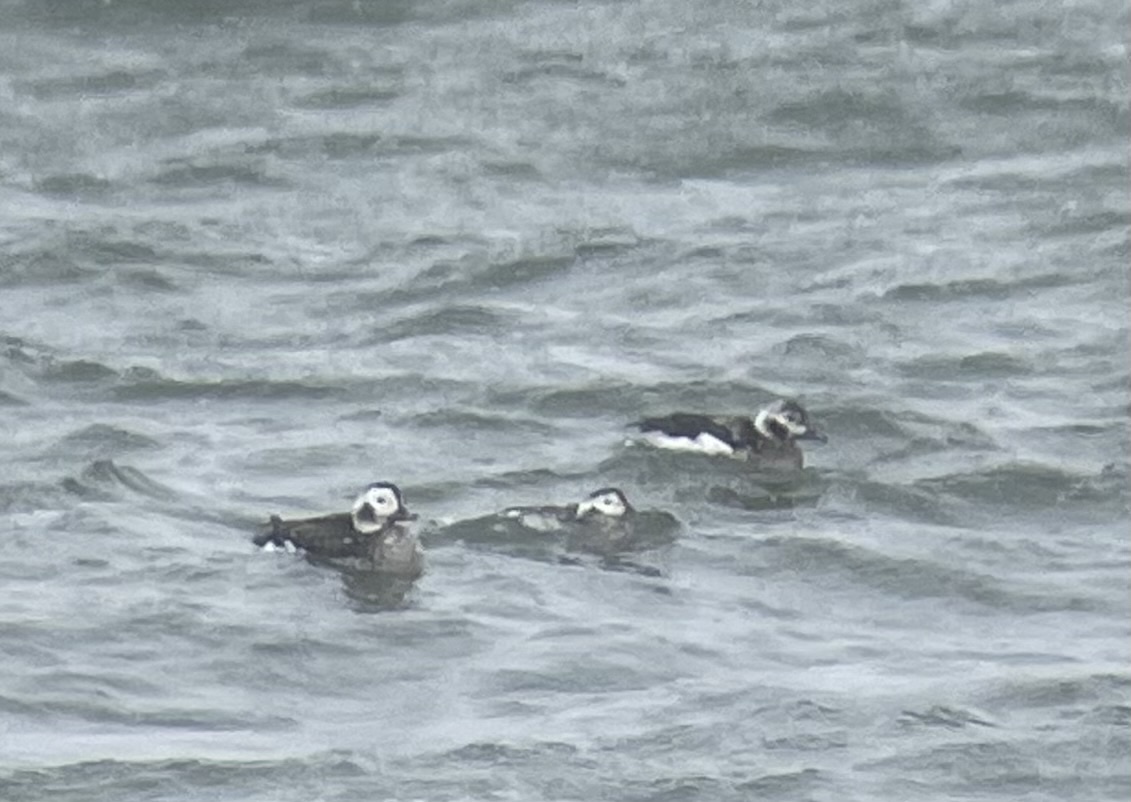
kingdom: Animalia
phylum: Chordata
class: Aves
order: Anseriformes
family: Anatidae
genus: Clangula
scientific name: Clangula hyemalis
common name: Long-tailed duck
